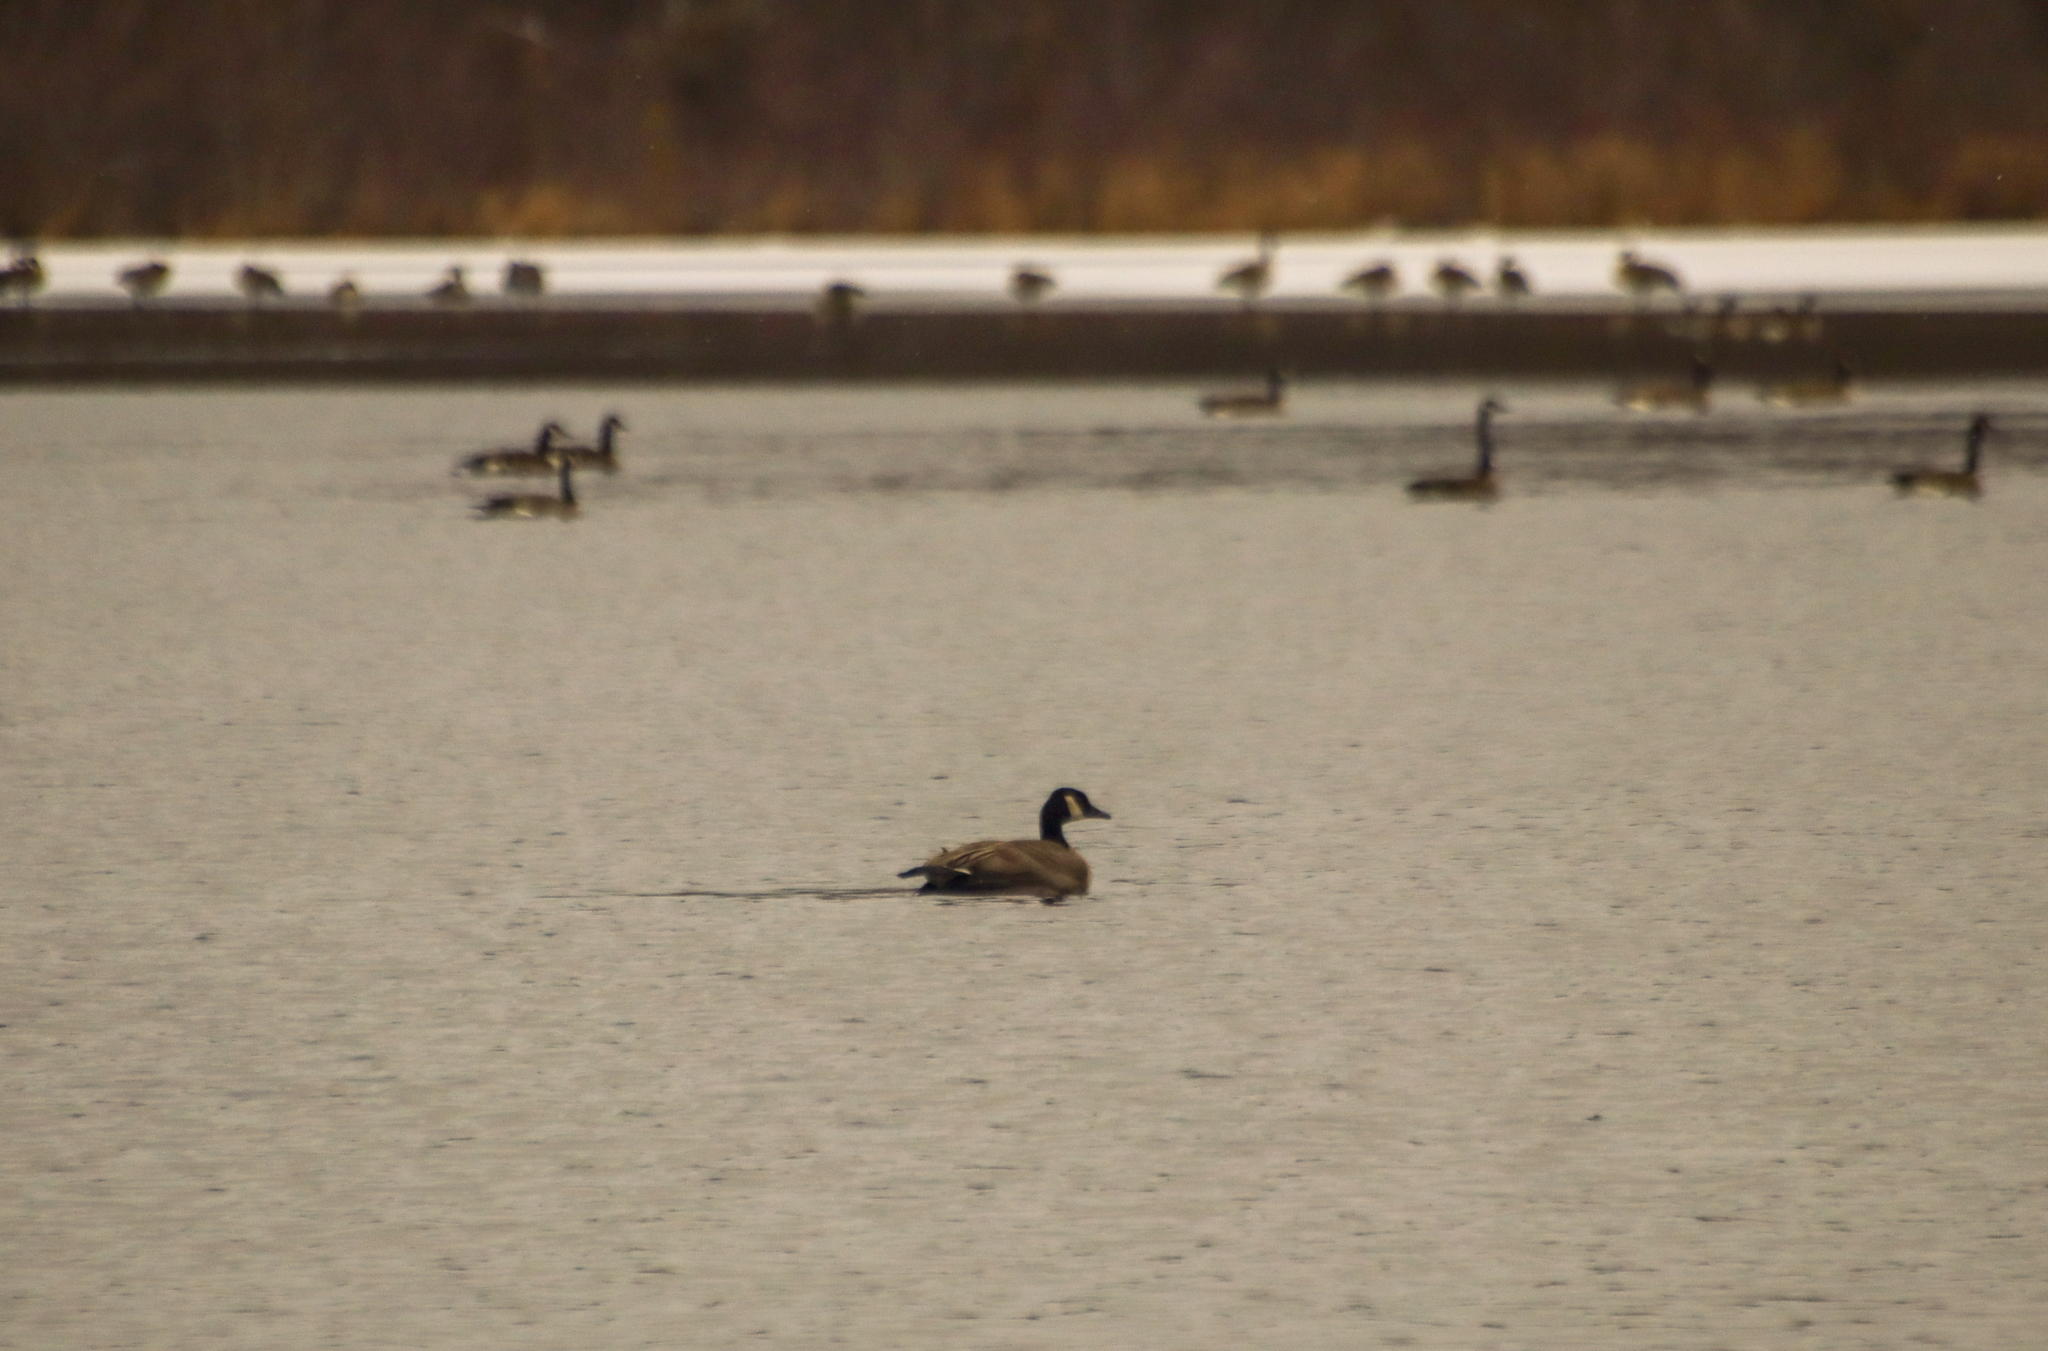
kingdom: Animalia
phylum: Chordata
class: Aves
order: Anseriformes
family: Anatidae
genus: Branta
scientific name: Branta canadensis
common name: Canada goose
